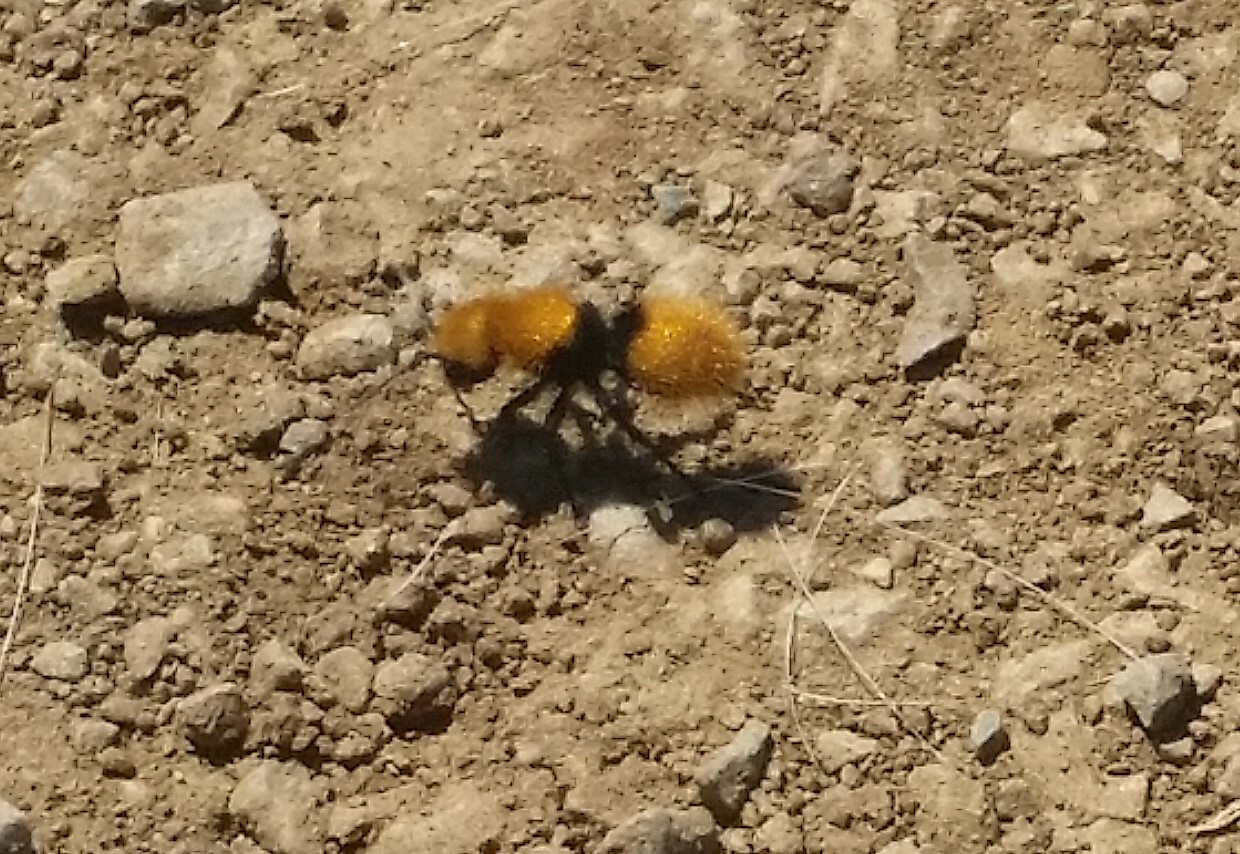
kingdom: Animalia
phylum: Arthropoda
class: Insecta
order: Hymenoptera
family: Mutillidae
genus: Dasymutilla
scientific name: Dasymutilla
